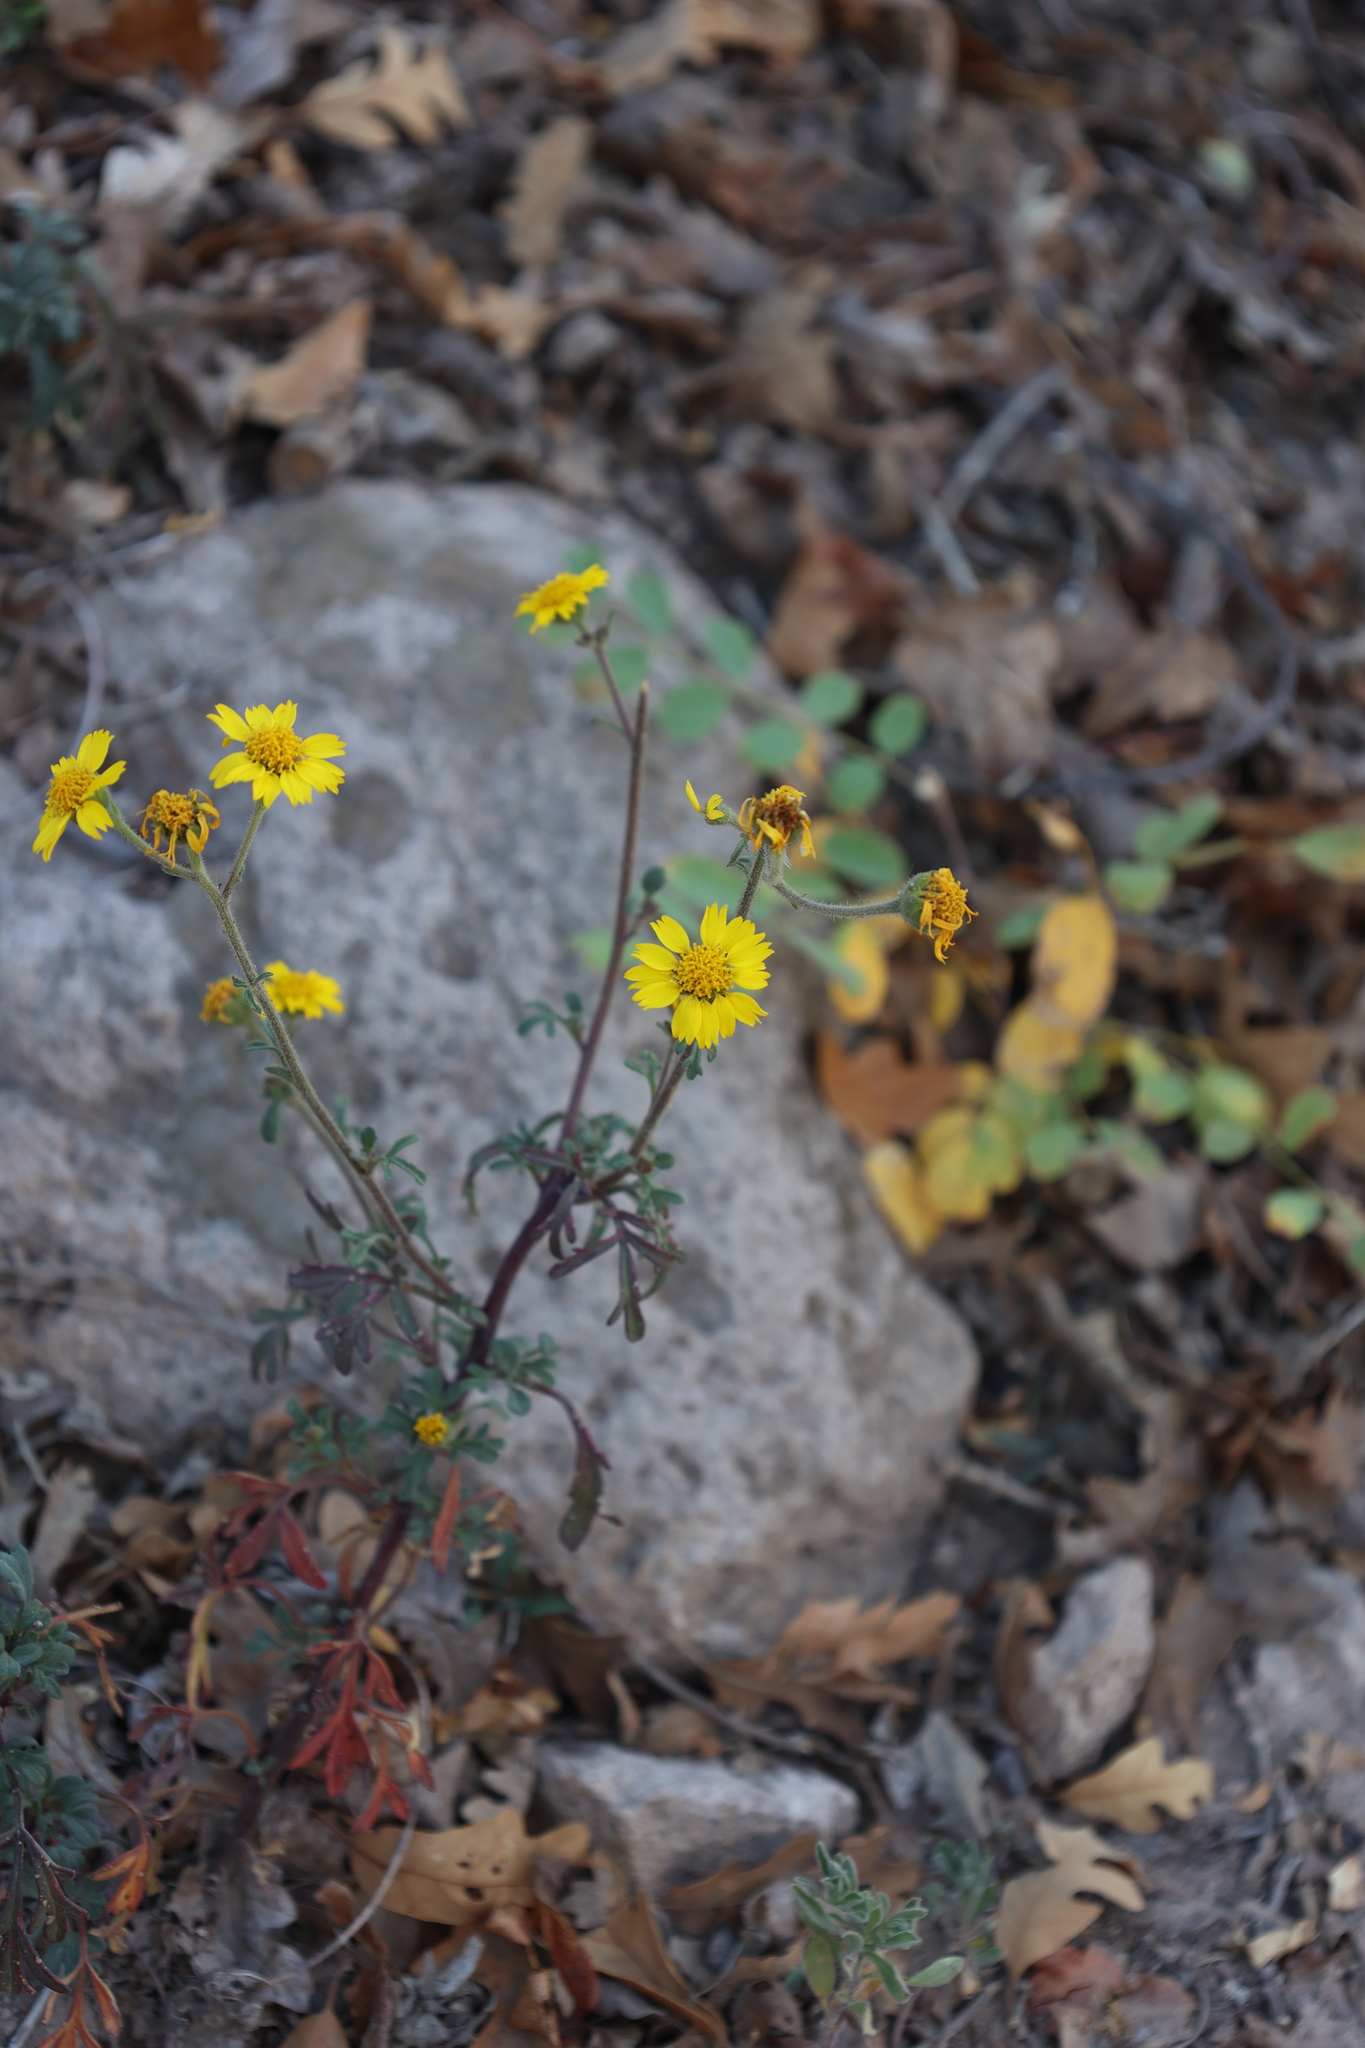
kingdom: Plantae
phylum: Tracheophyta
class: Magnoliopsida
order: Asterales
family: Asteraceae
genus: Hymenothrix
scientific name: Hymenothrix dissecta
